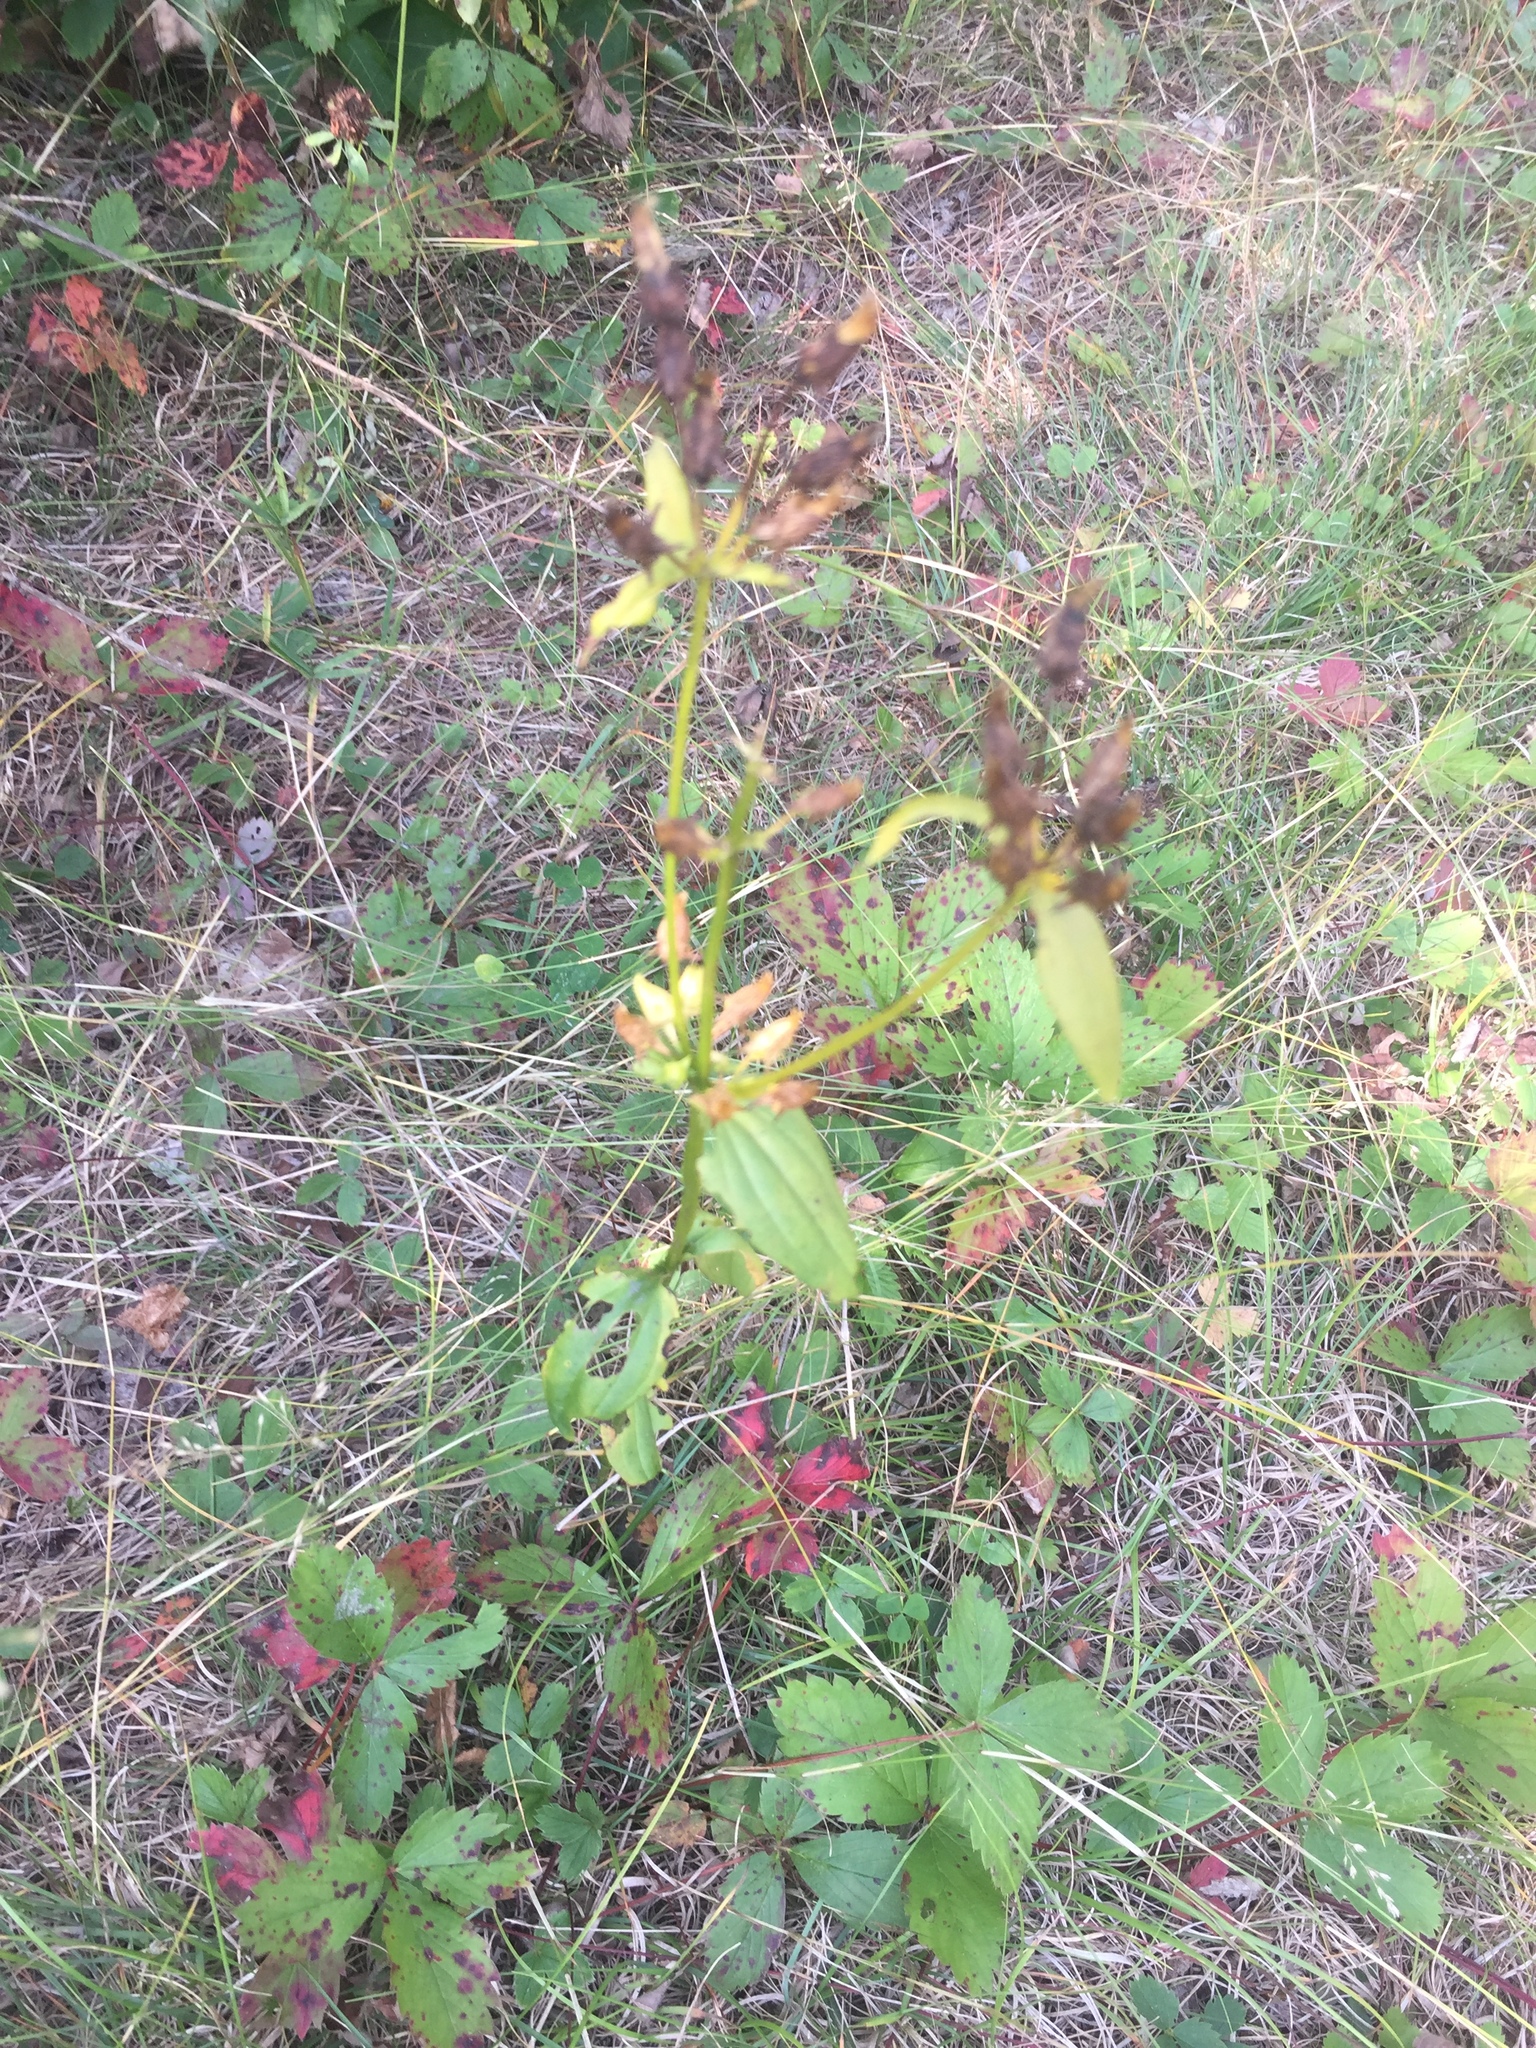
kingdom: Plantae
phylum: Tracheophyta
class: Magnoliopsida
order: Gentianales
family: Gentianaceae
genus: Halenia
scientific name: Halenia deflexa
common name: American spurred gentian
